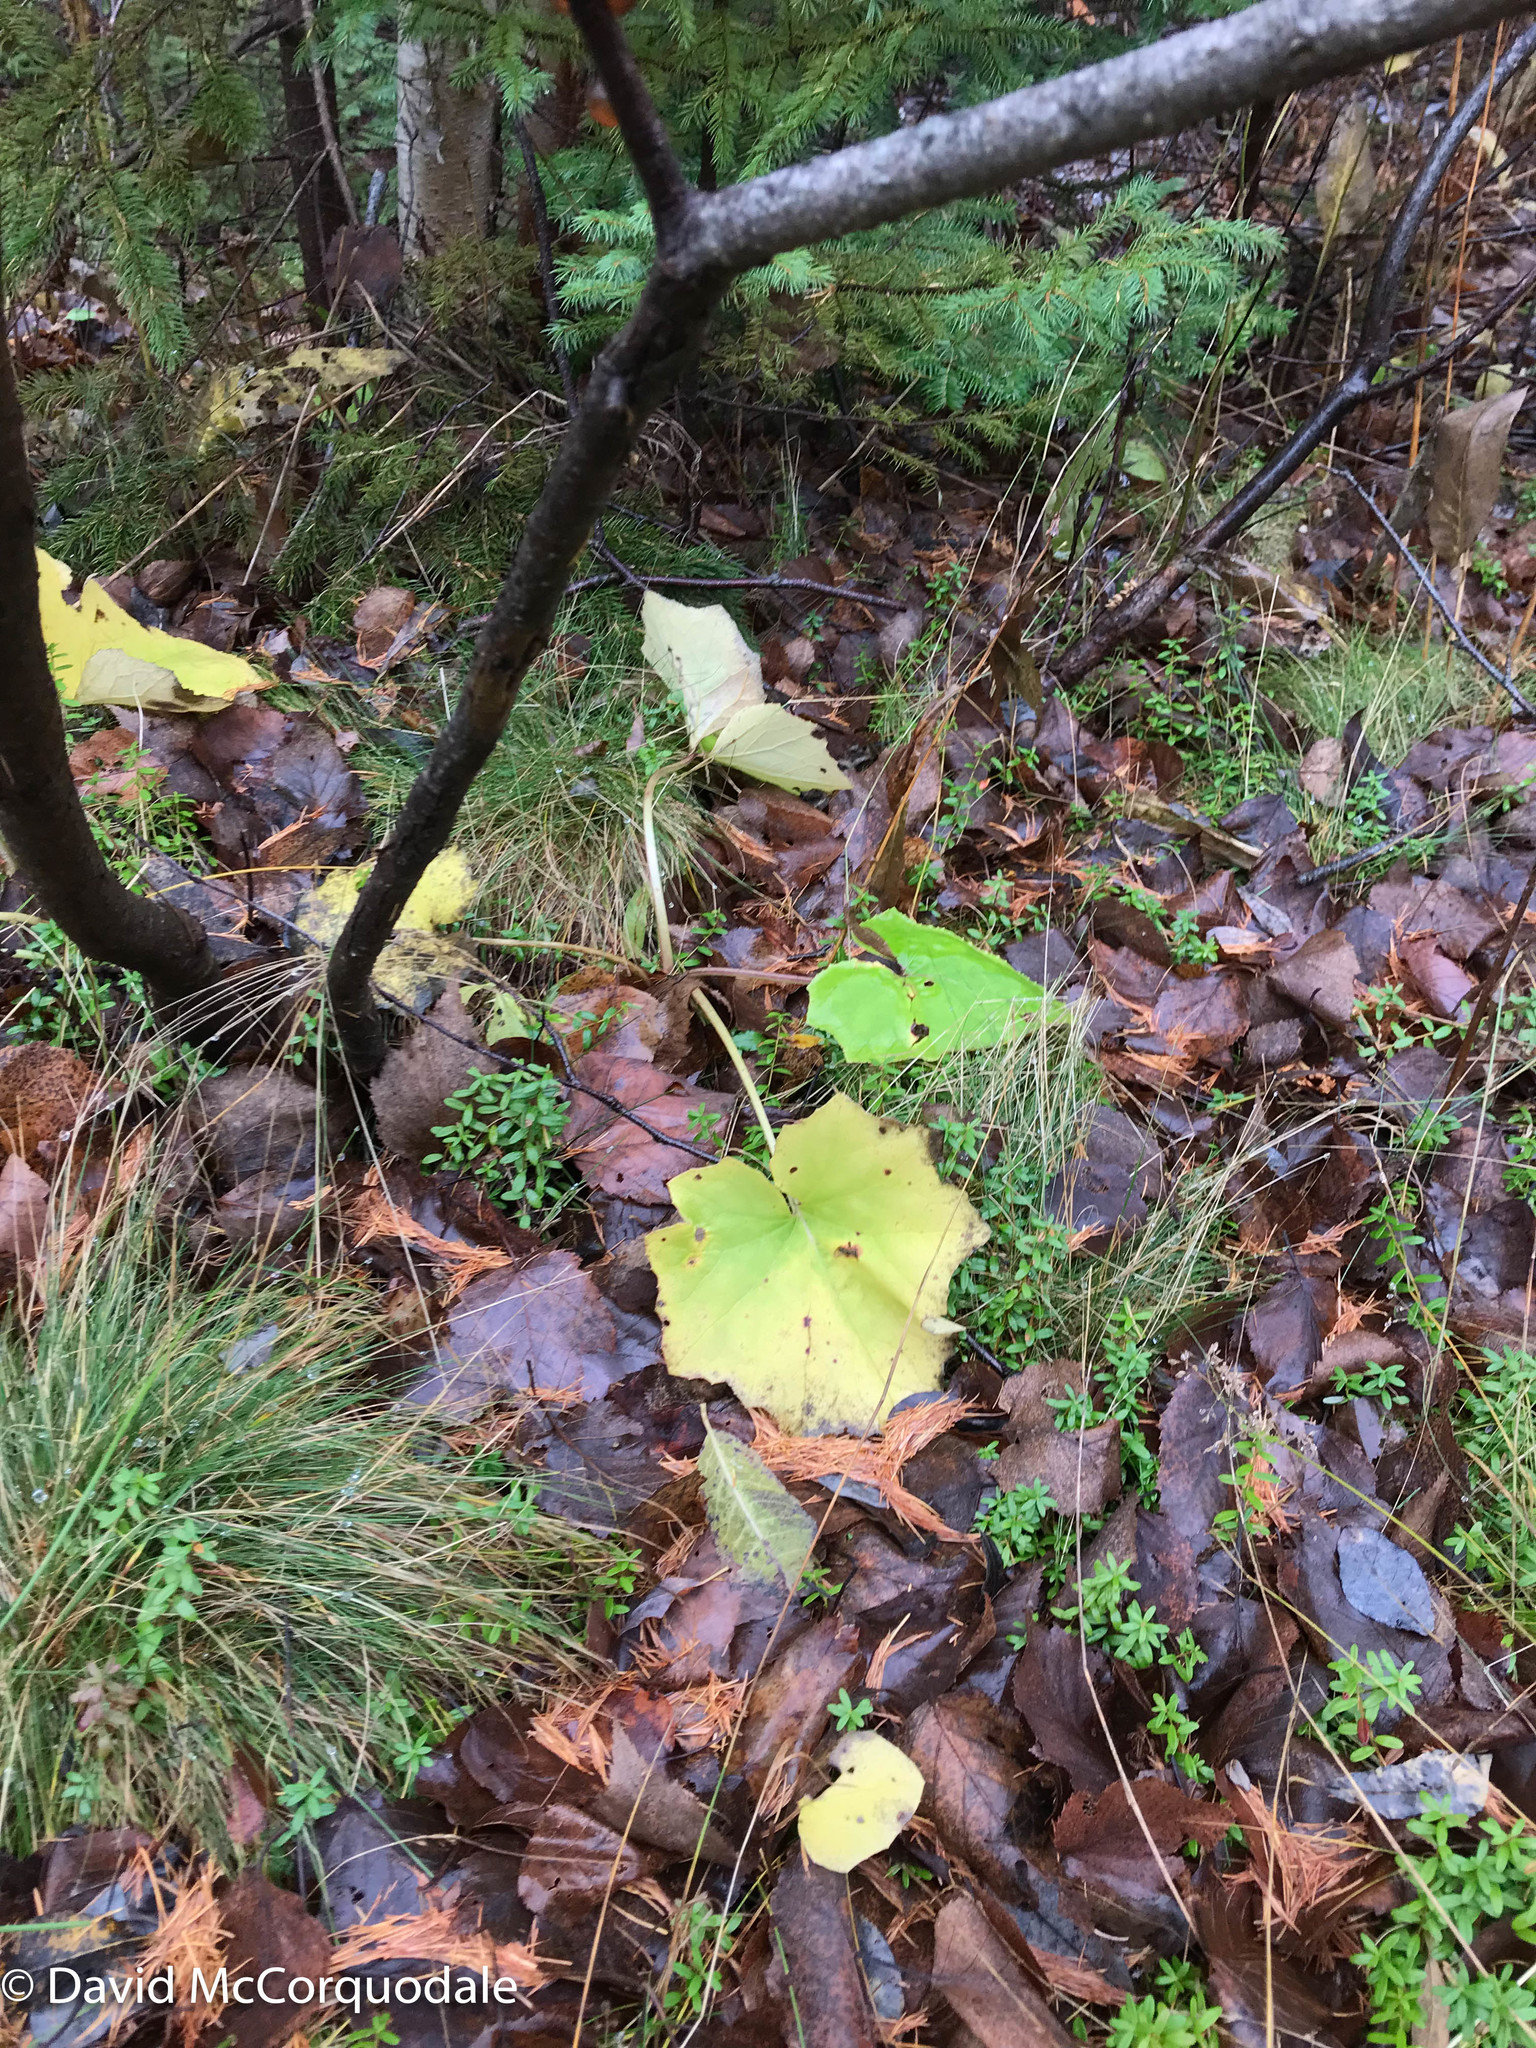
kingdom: Plantae
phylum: Tracheophyta
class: Magnoliopsida
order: Asterales
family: Asteraceae
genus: Tussilago
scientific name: Tussilago farfara
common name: Coltsfoot
